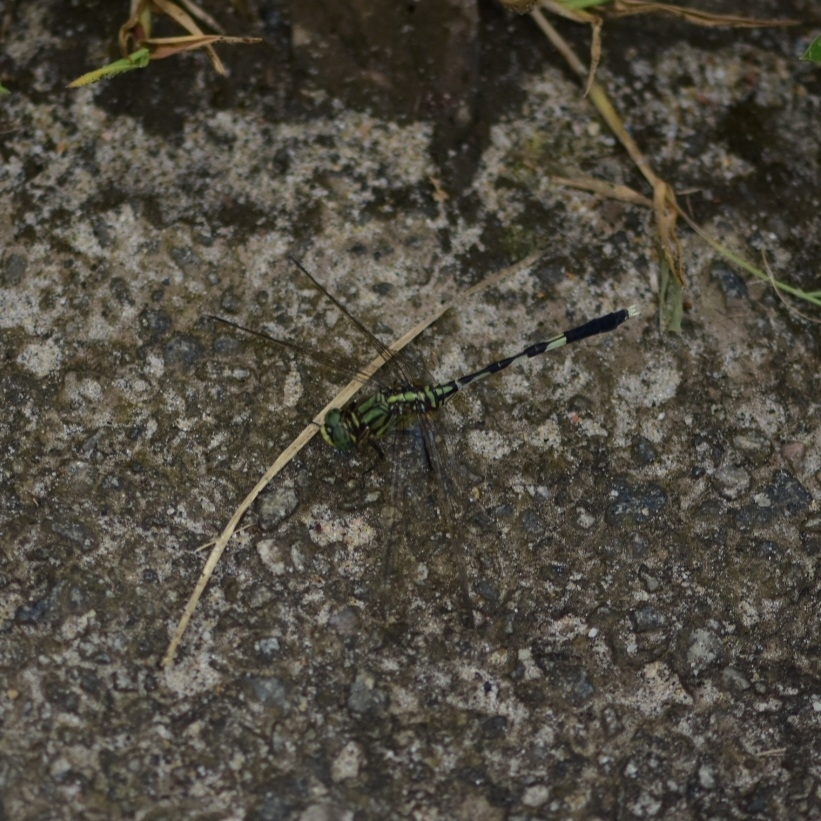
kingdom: Animalia
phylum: Arthropoda
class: Insecta
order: Odonata
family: Libellulidae
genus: Orthetrum
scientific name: Orthetrum sabina
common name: Slender skimmer
